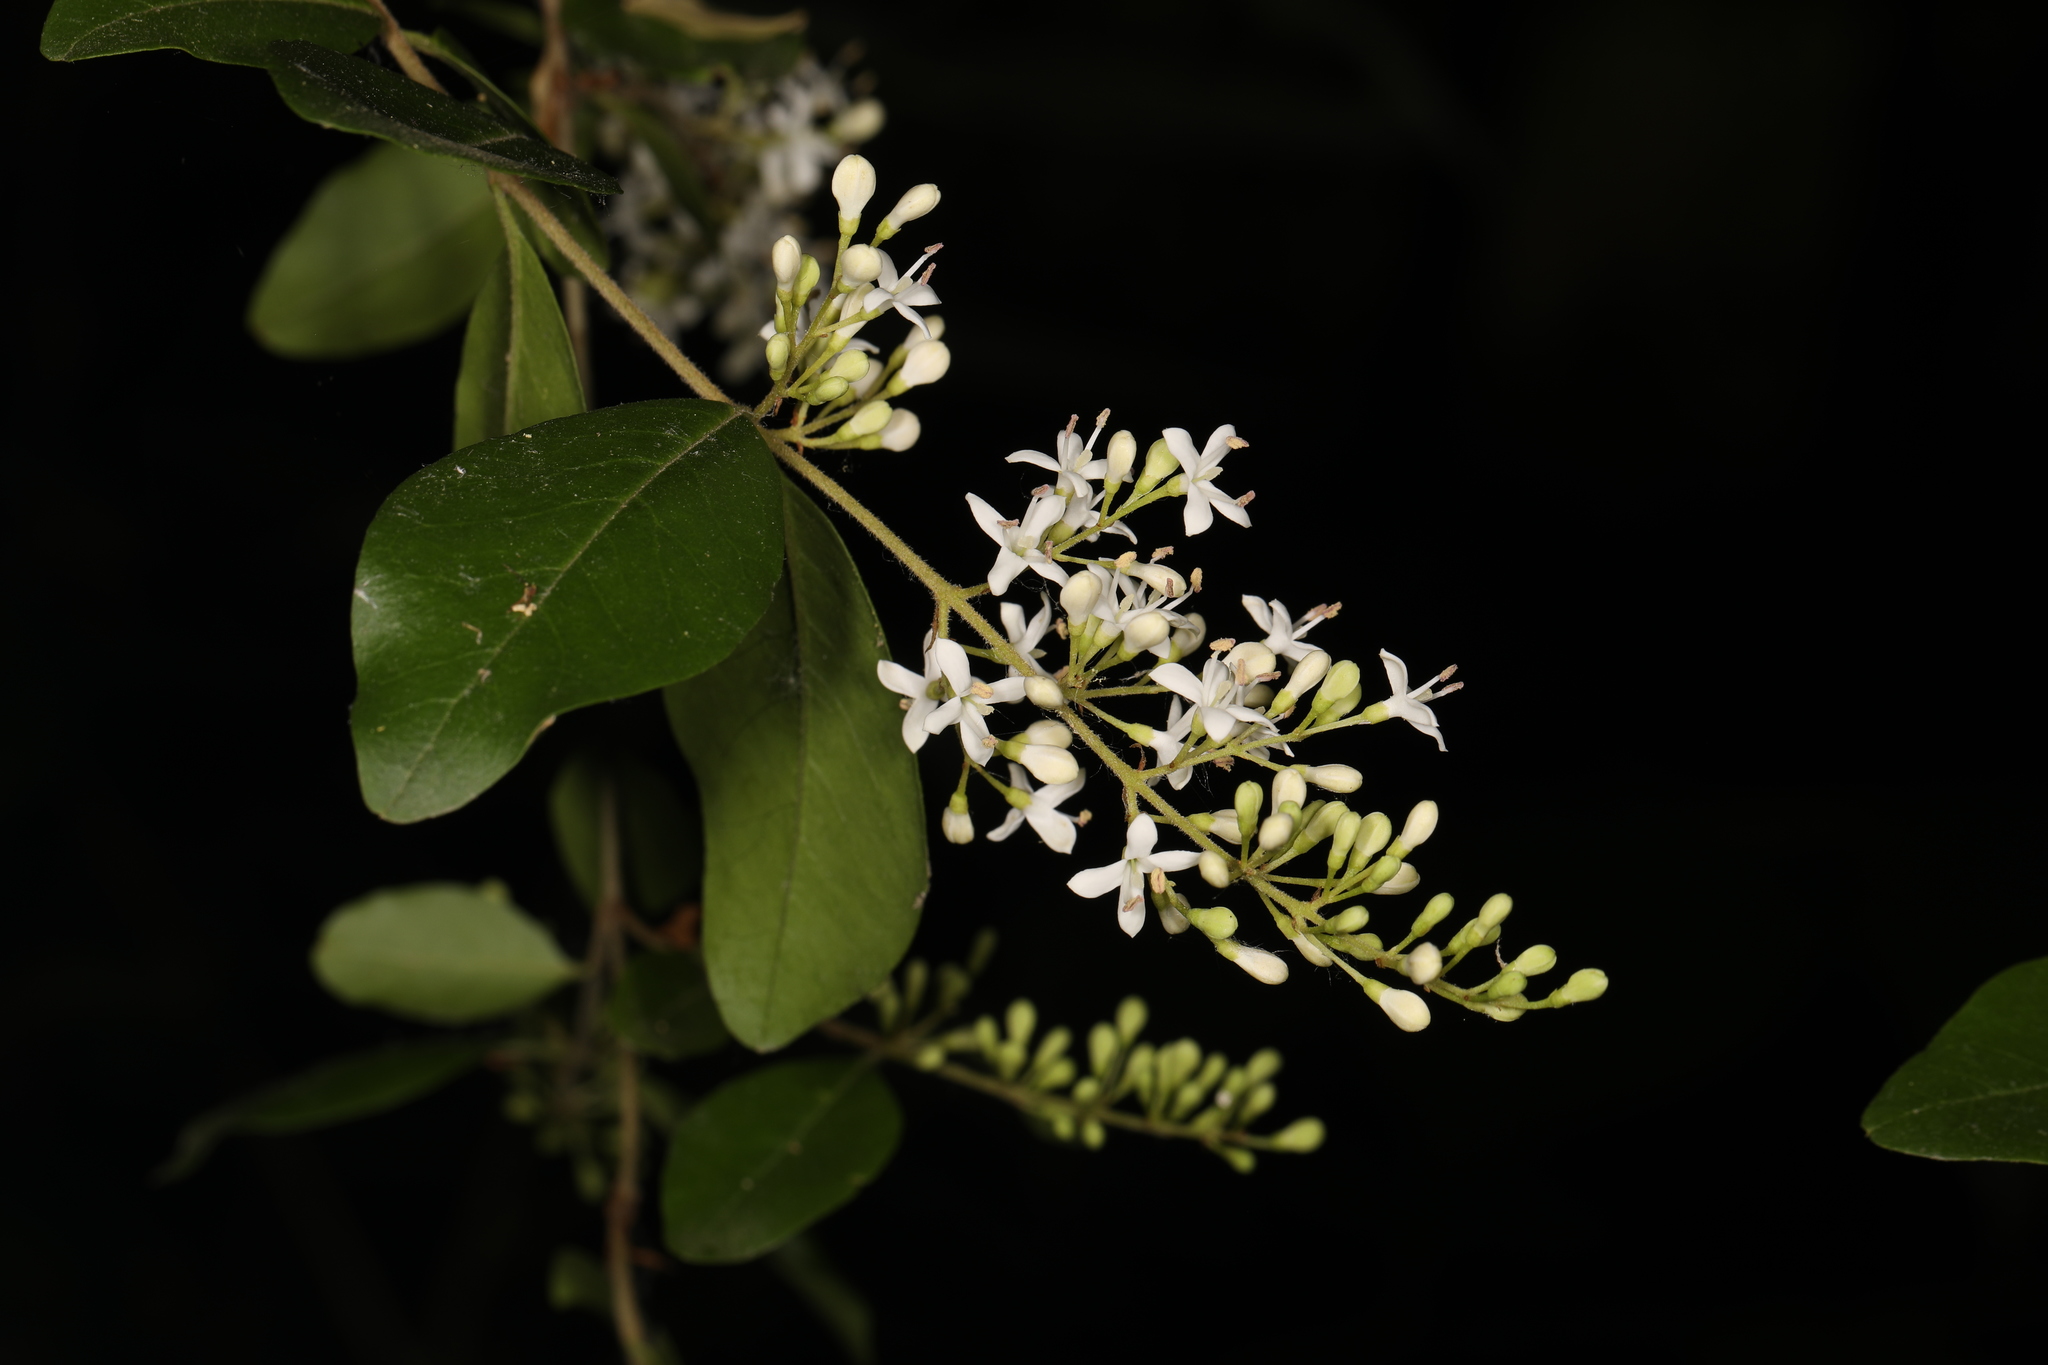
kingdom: Plantae
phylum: Tracheophyta
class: Magnoliopsida
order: Lamiales
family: Oleaceae
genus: Ligustrum
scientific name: Ligustrum sinense
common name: Chinese privet
